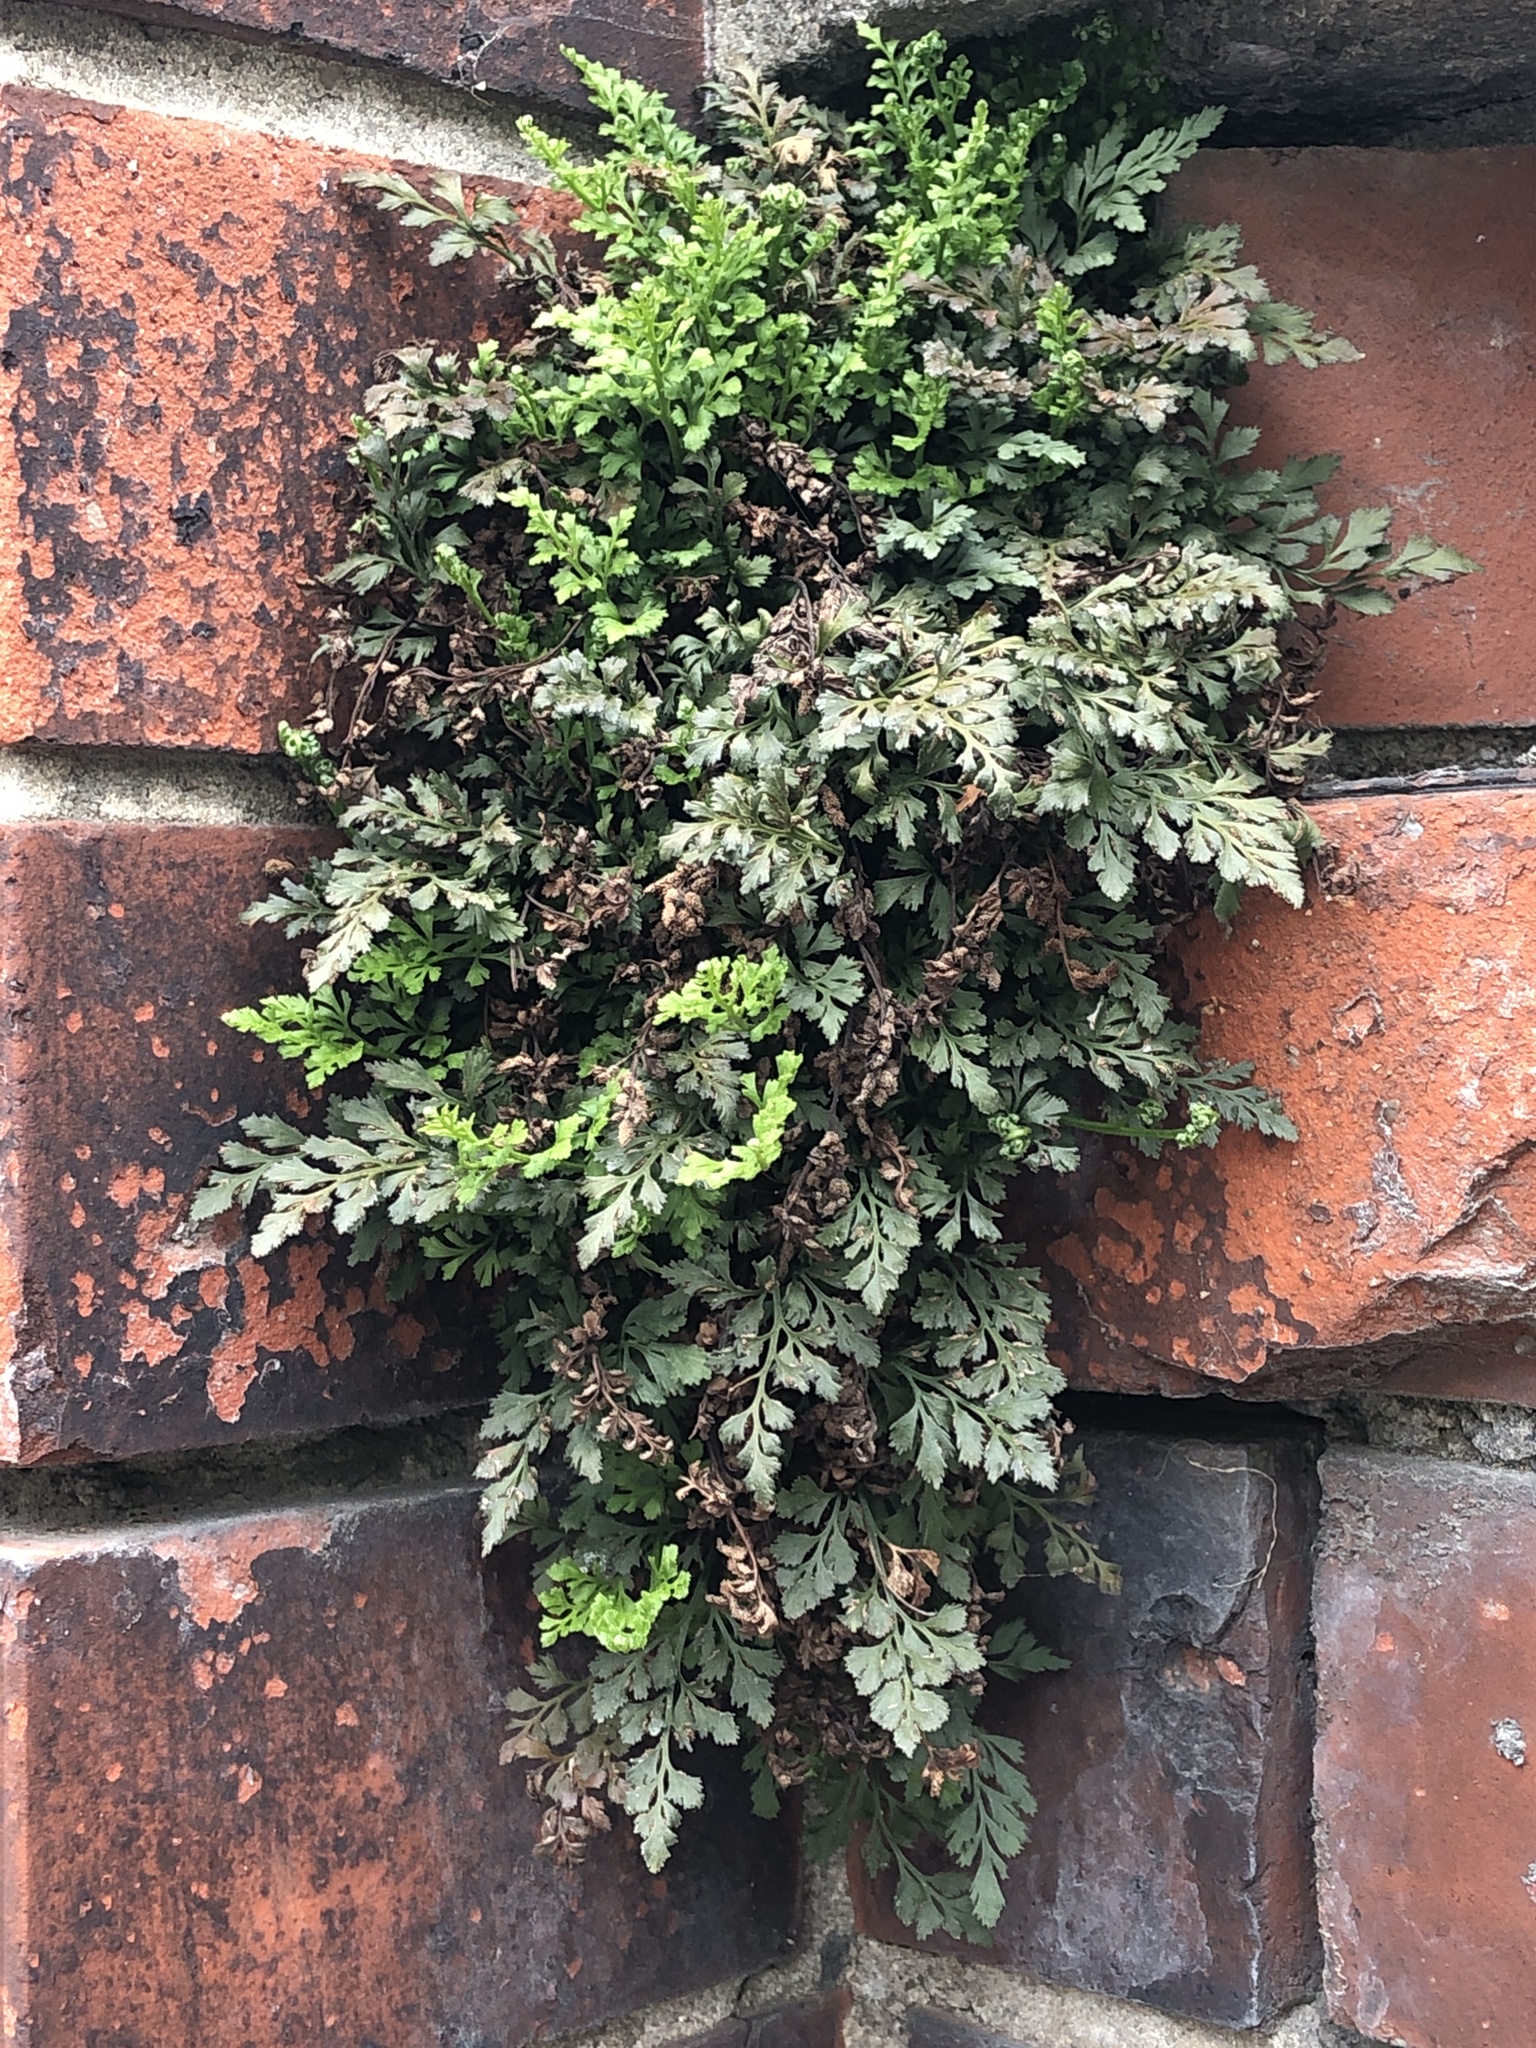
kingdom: Plantae
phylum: Tracheophyta
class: Polypodiopsida
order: Polypodiales
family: Aspleniaceae
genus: Asplenium
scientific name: Asplenium ruta-muraria
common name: Wall-rue
